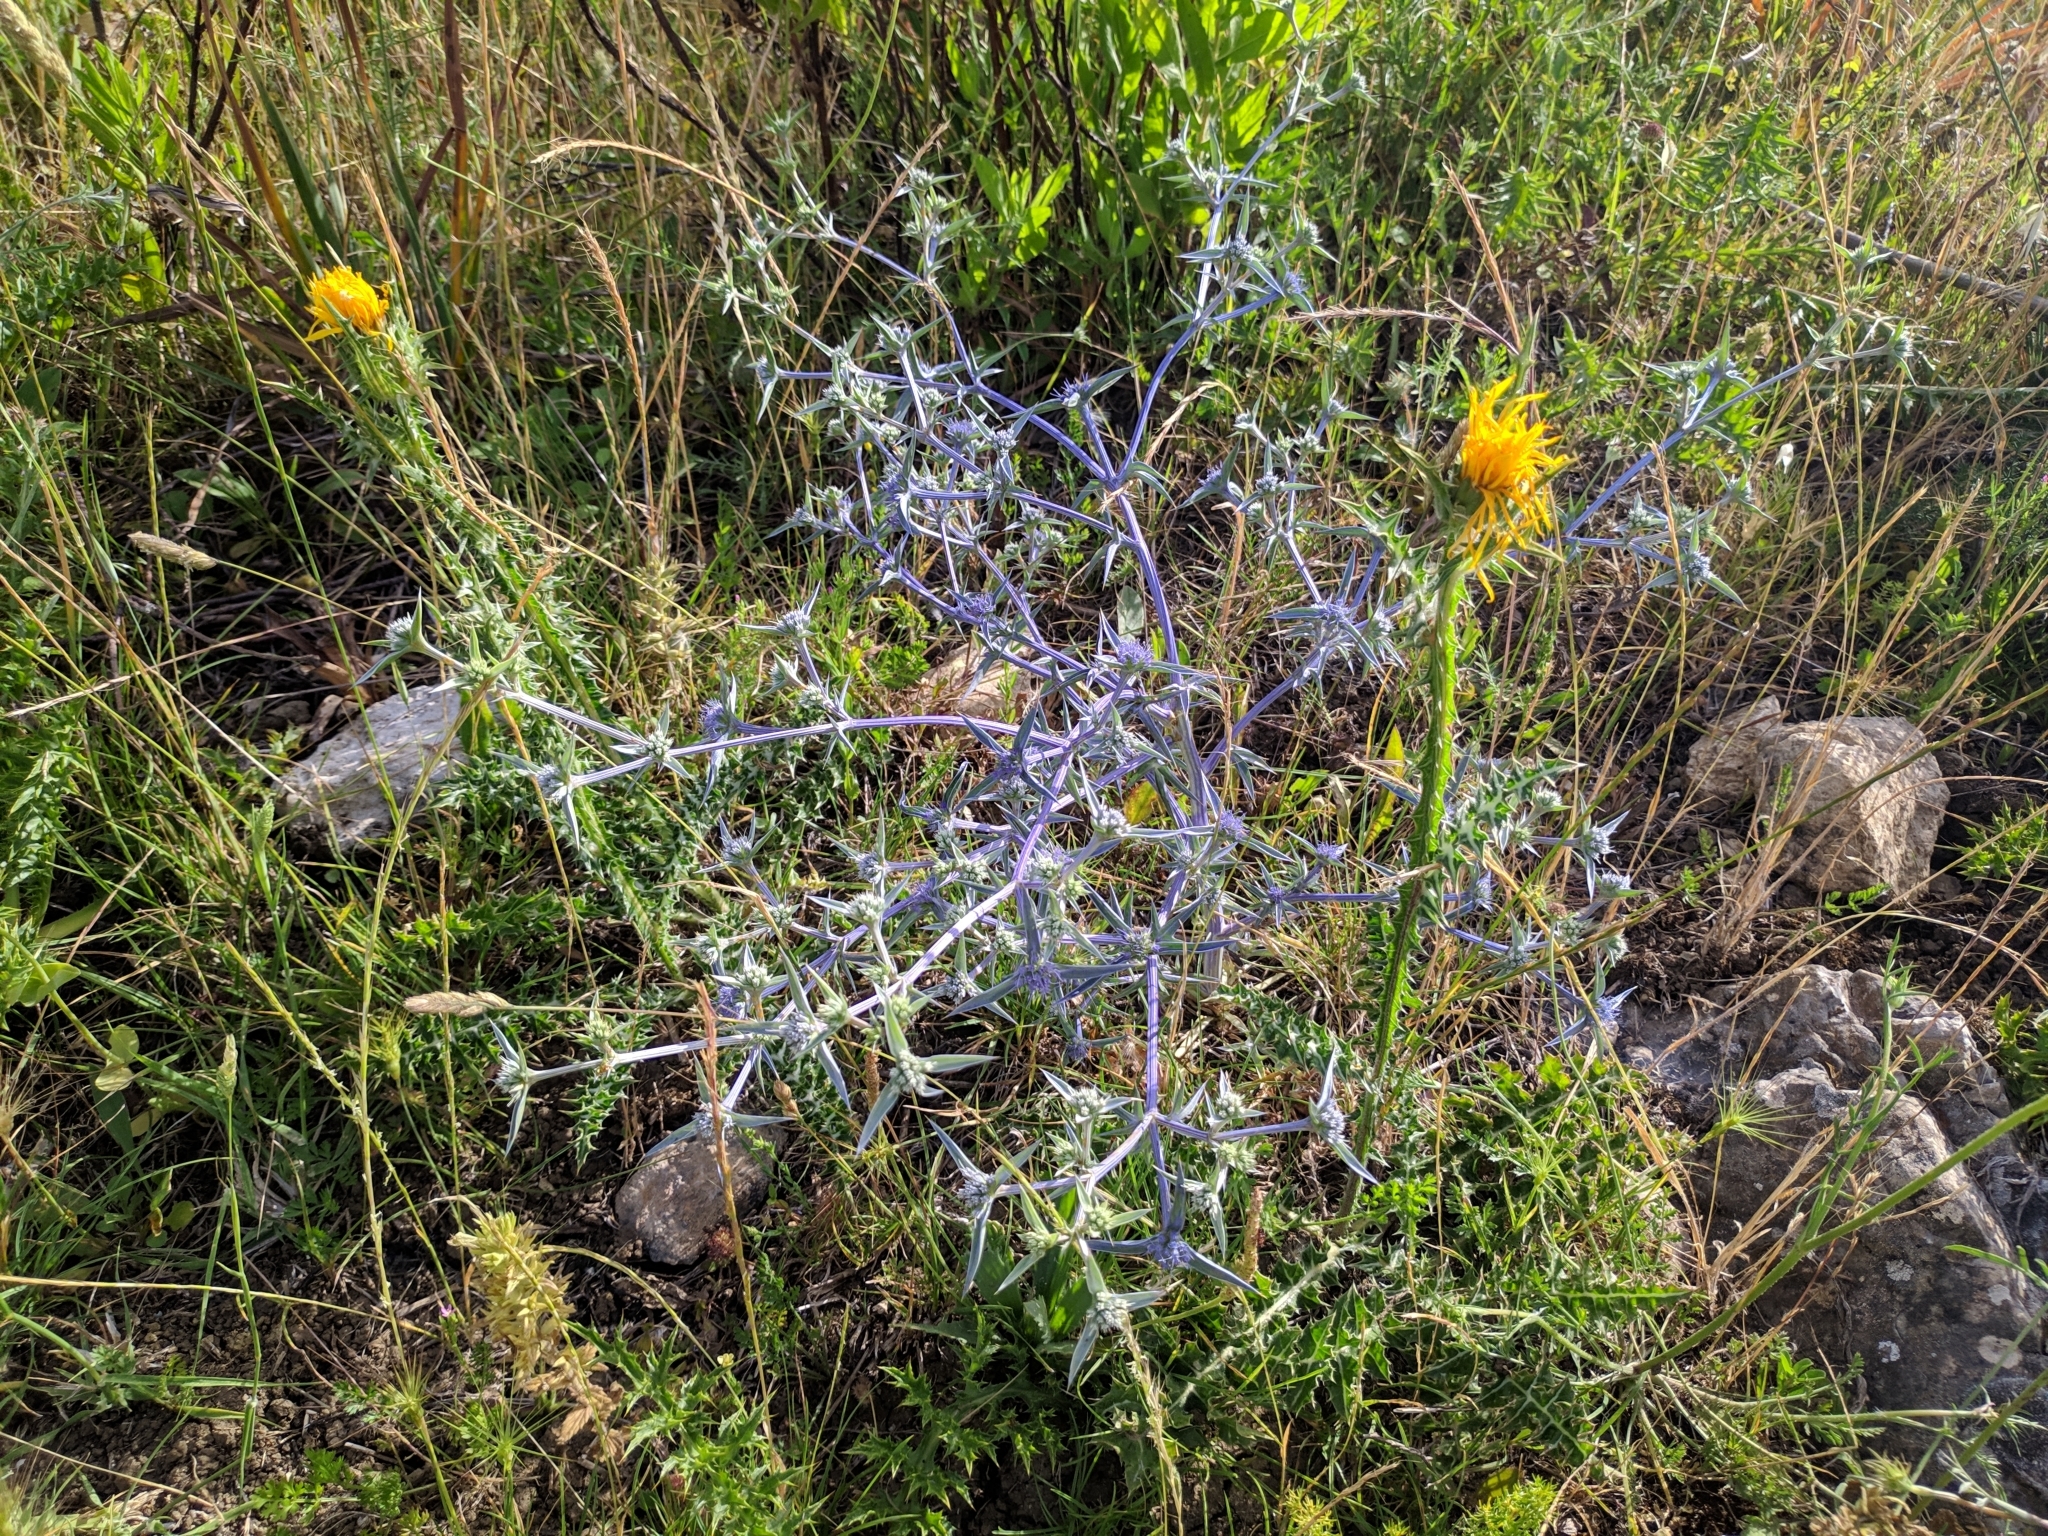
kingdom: Plantae
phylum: Tracheophyta
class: Magnoliopsida
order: Apiales
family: Apiaceae
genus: Eryngium
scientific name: Eryngium triquetrum
